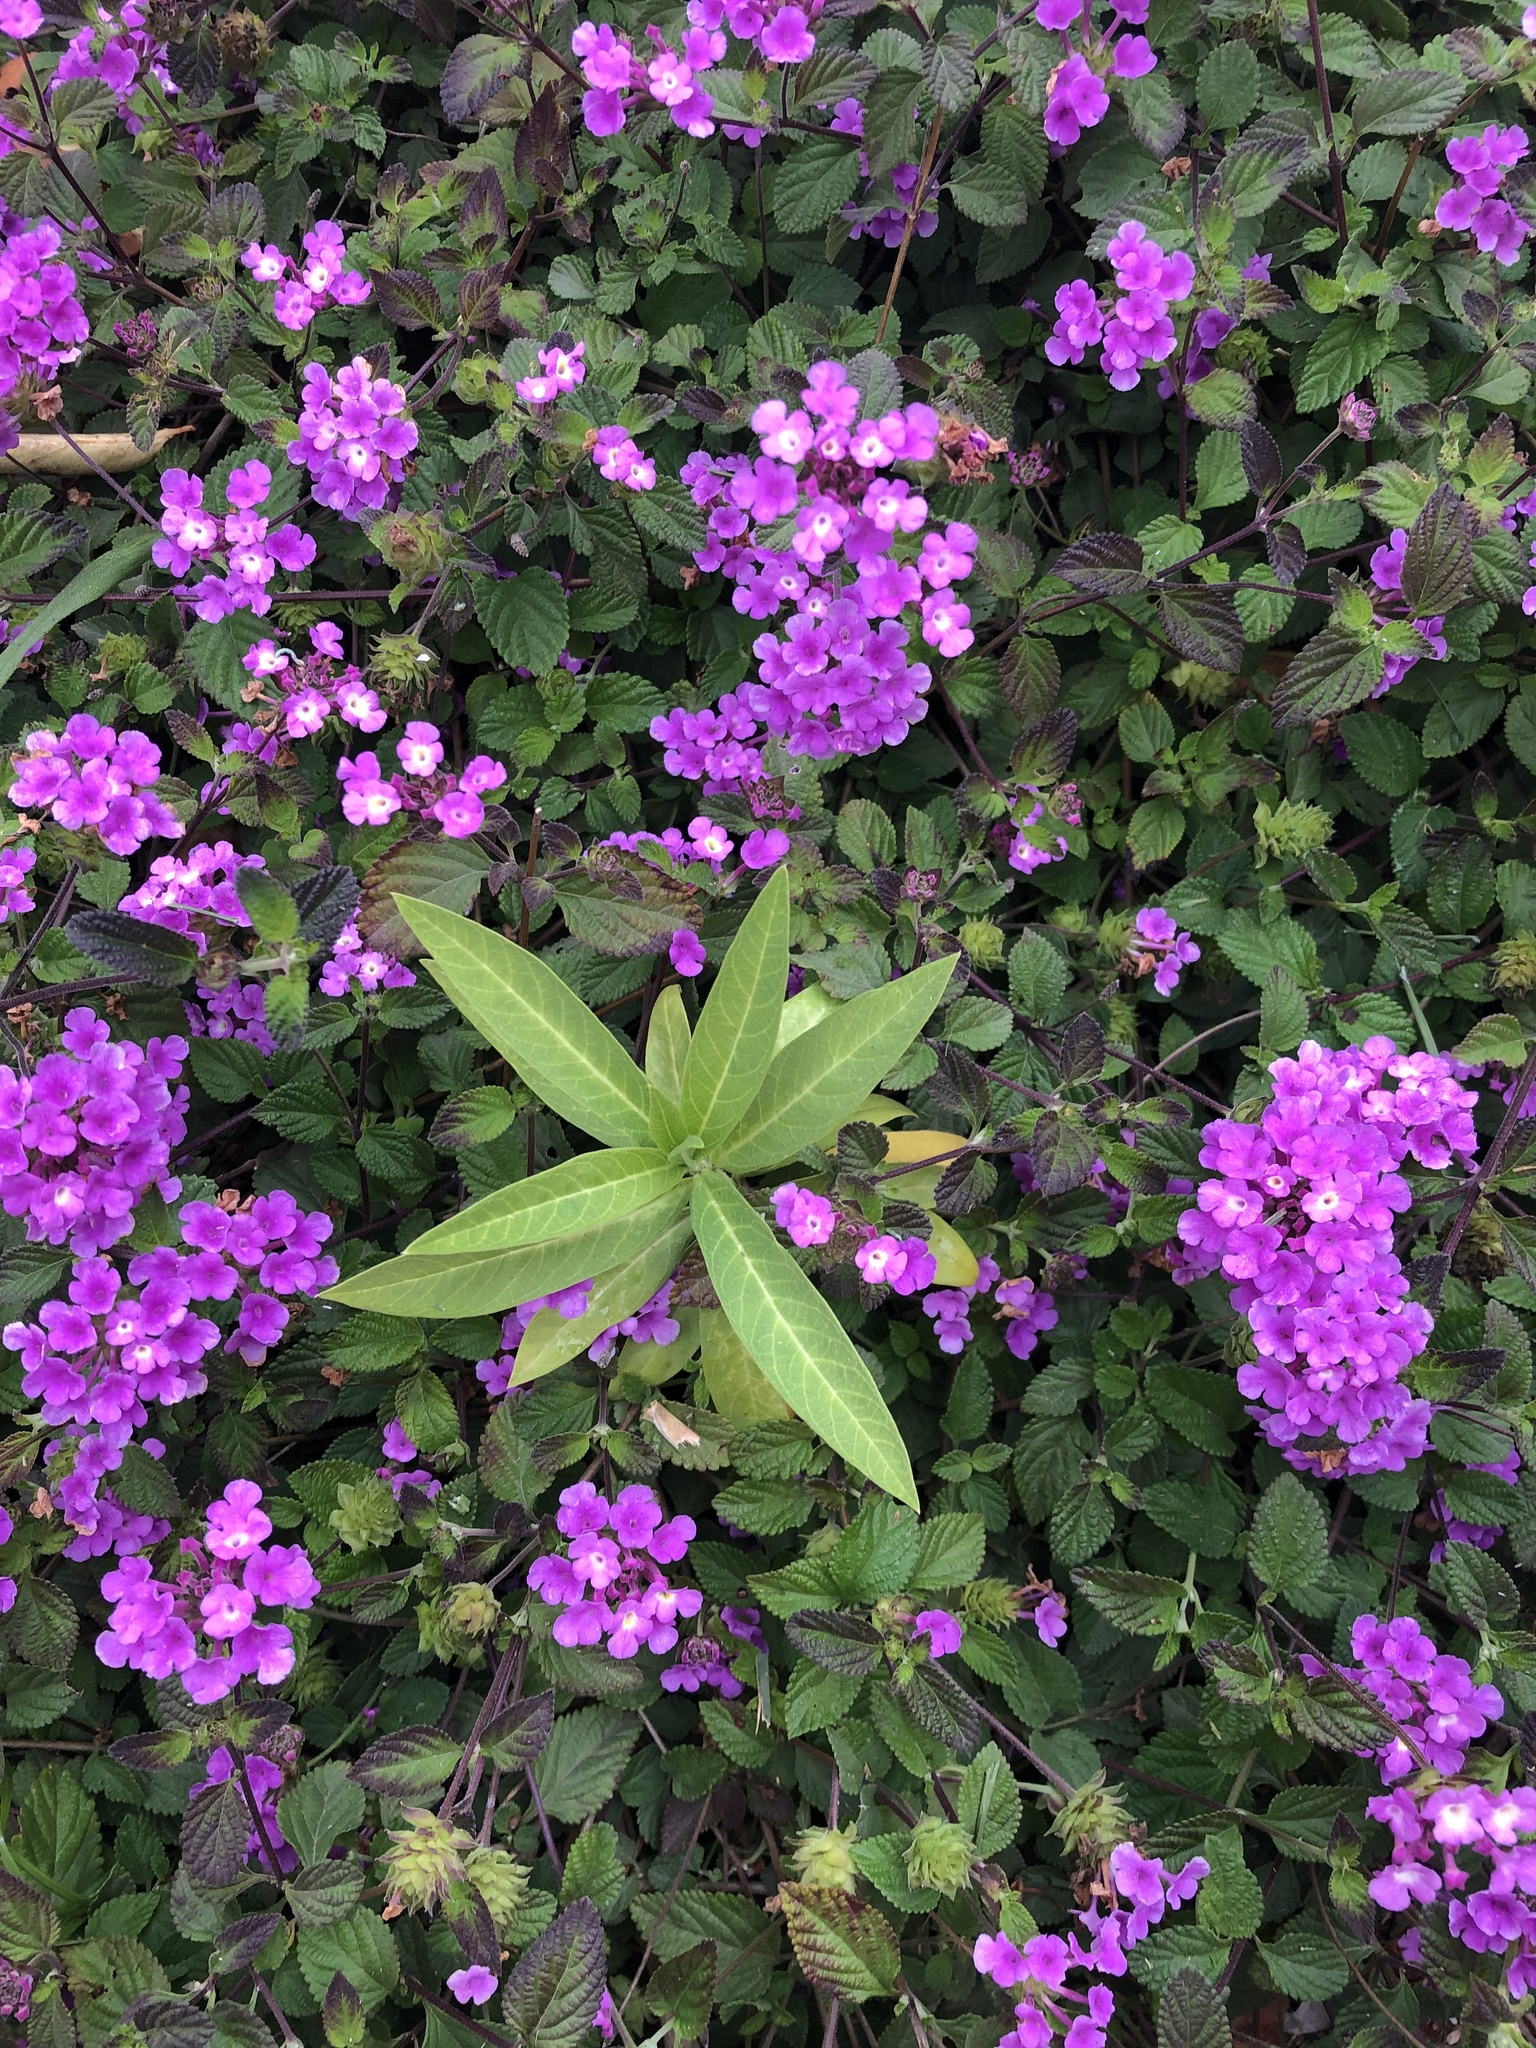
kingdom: Plantae
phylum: Tracheophyta
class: Magnoliopsida
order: Gentianales
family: Apocynaceae
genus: Asclepias
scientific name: Asclepias curassavica
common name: Bloodflower
